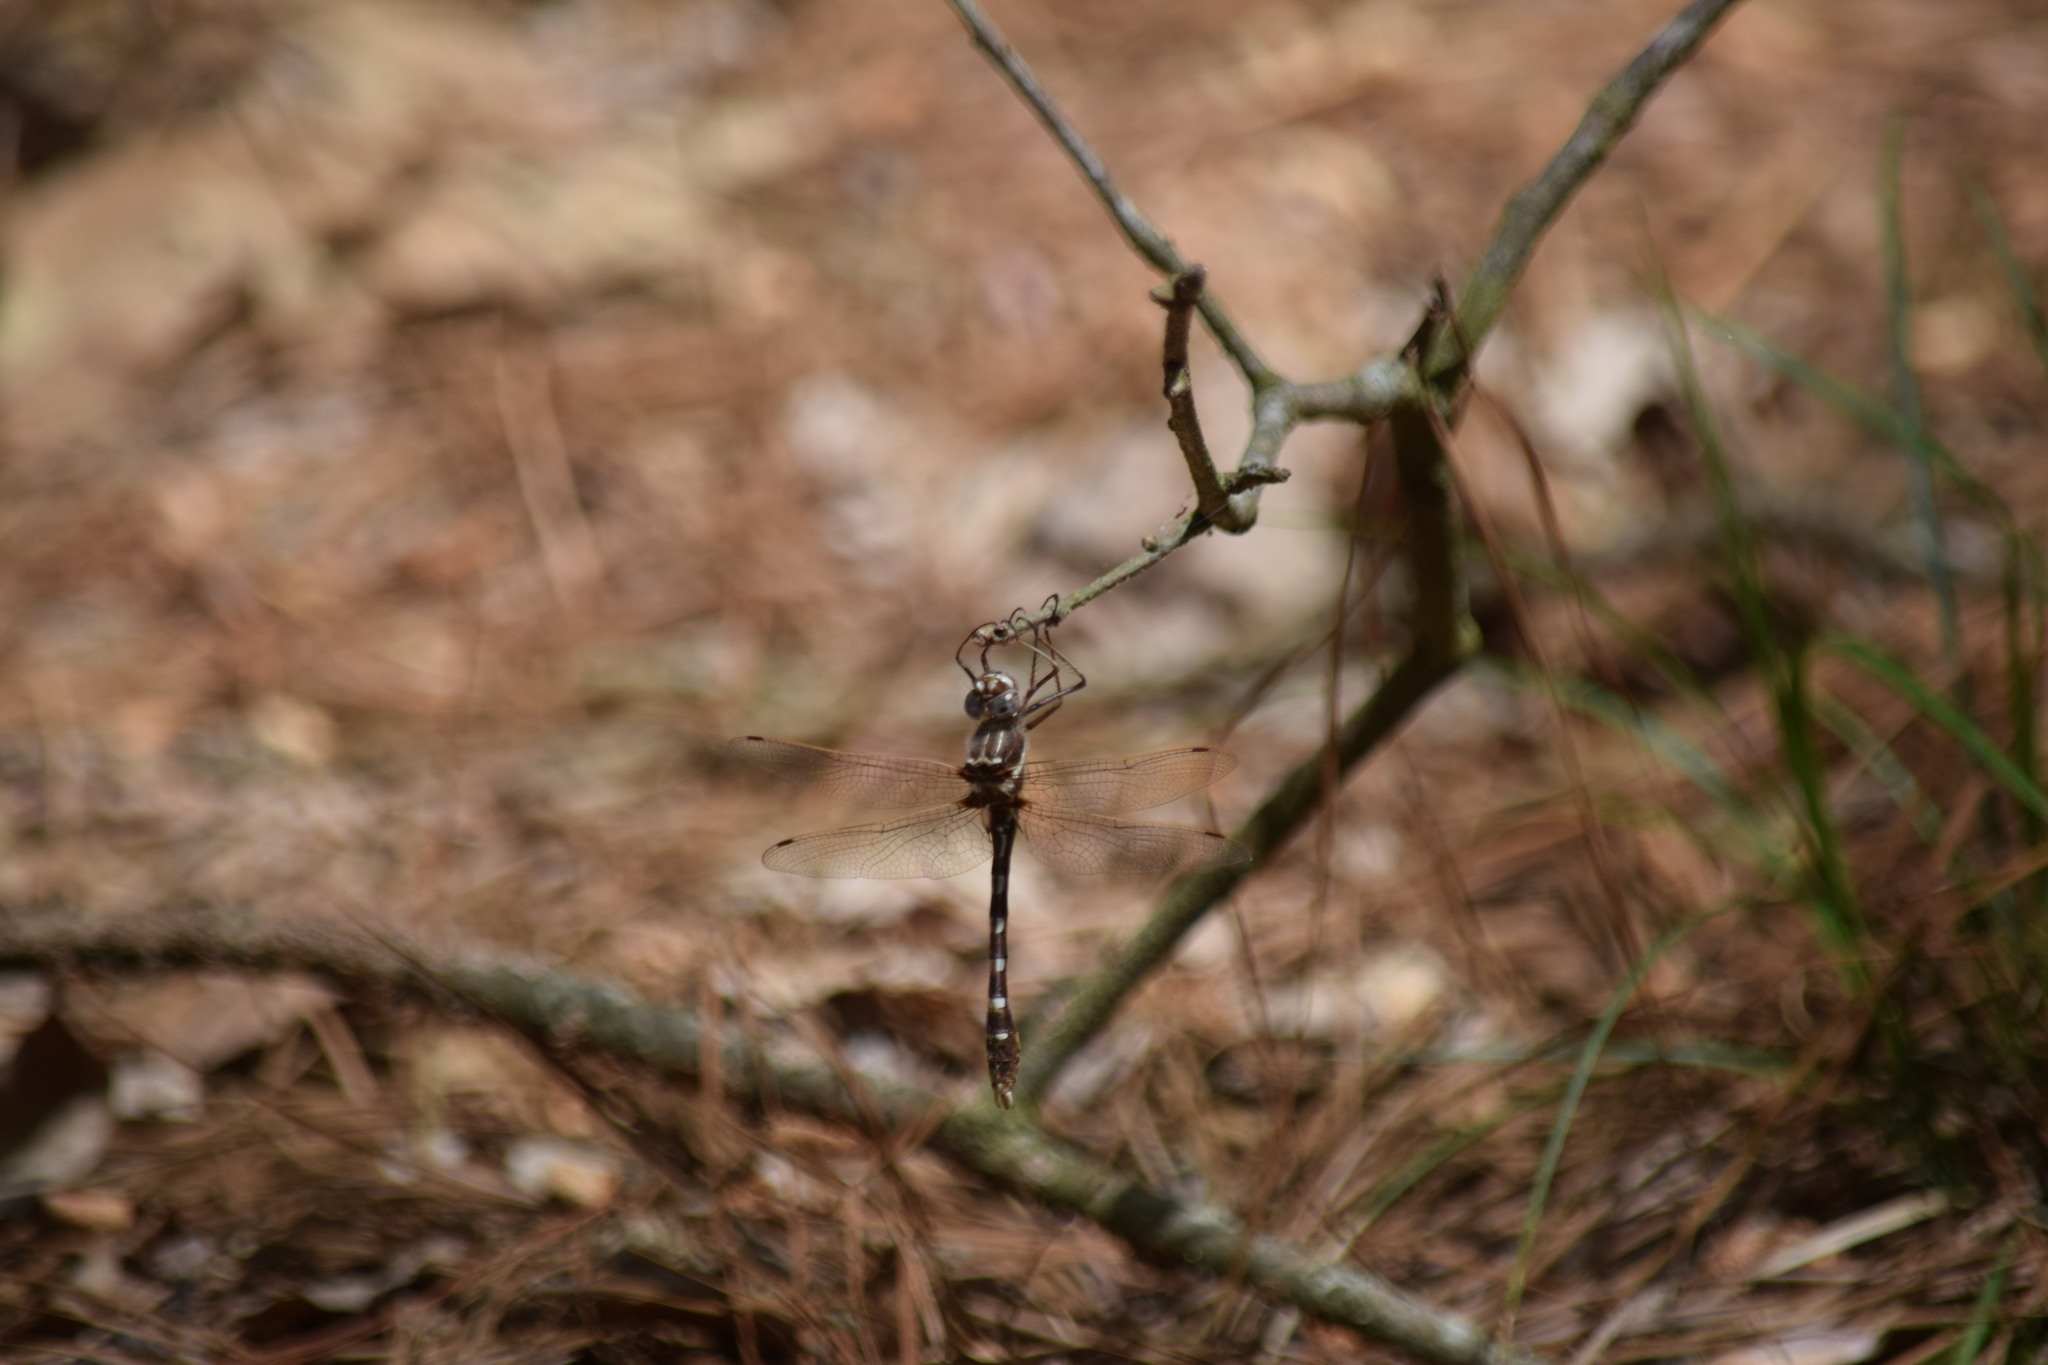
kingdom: Animalia
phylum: Arthropoda
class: Insecta
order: Odonata
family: Macromiidae
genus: Didymops
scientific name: Didymops transversa
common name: Stream cruiser
